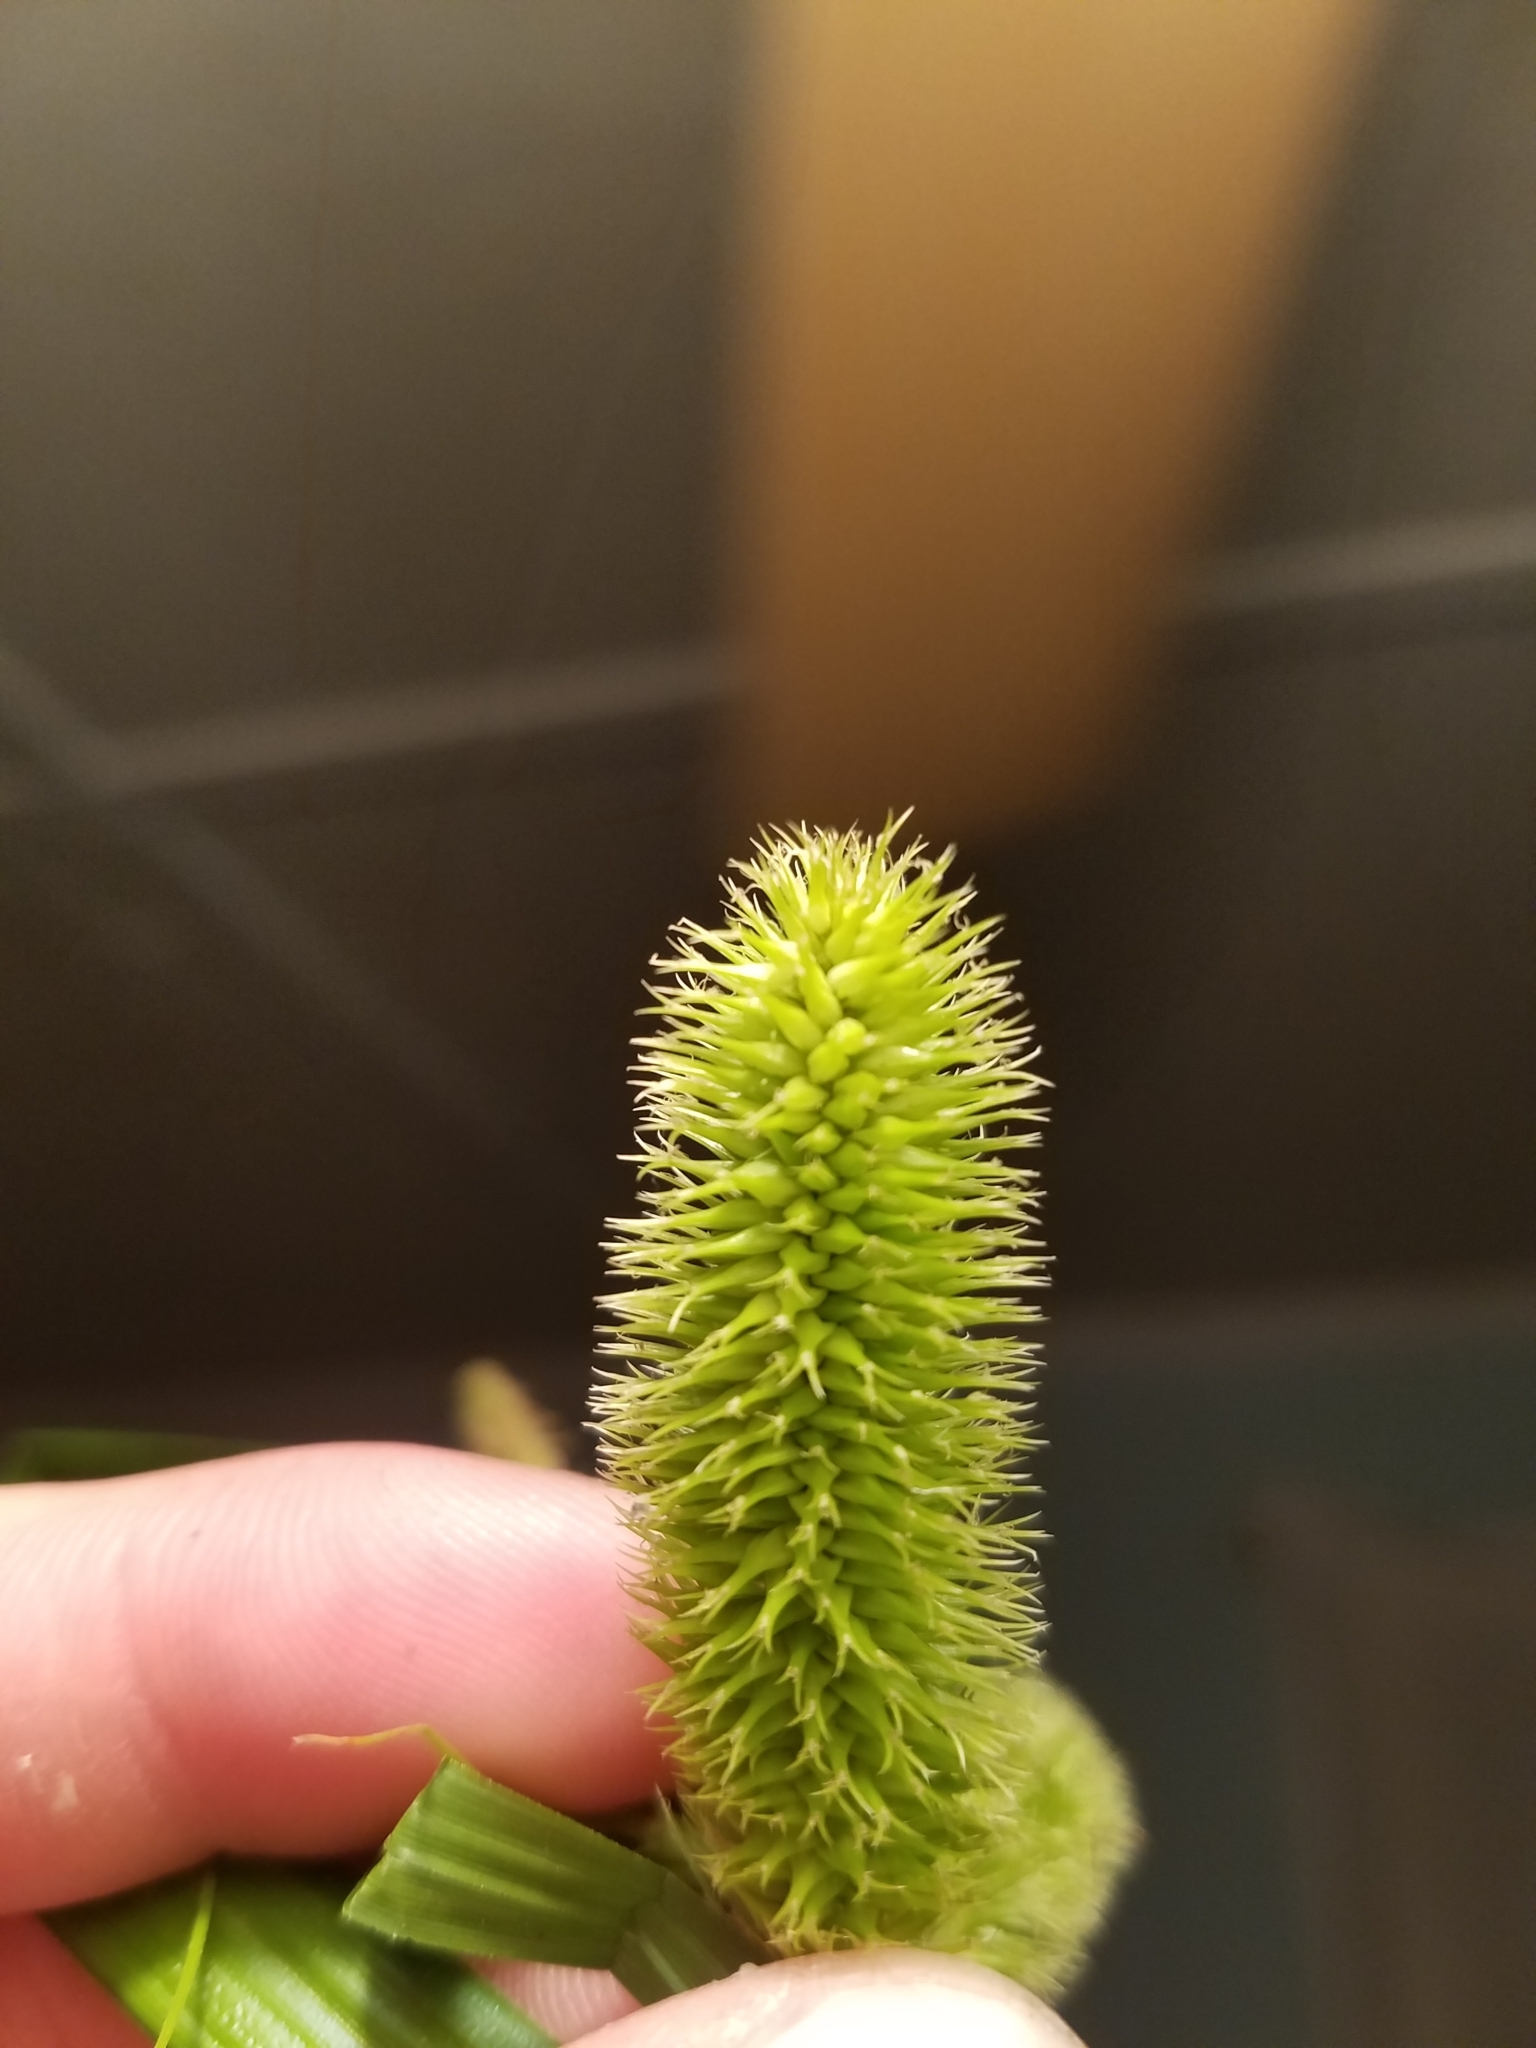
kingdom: Plantae
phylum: Tracheophyta
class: Liliopsida
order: Poales
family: Cyperaceae
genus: Carex
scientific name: Carex comosa
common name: Bristly sedge
